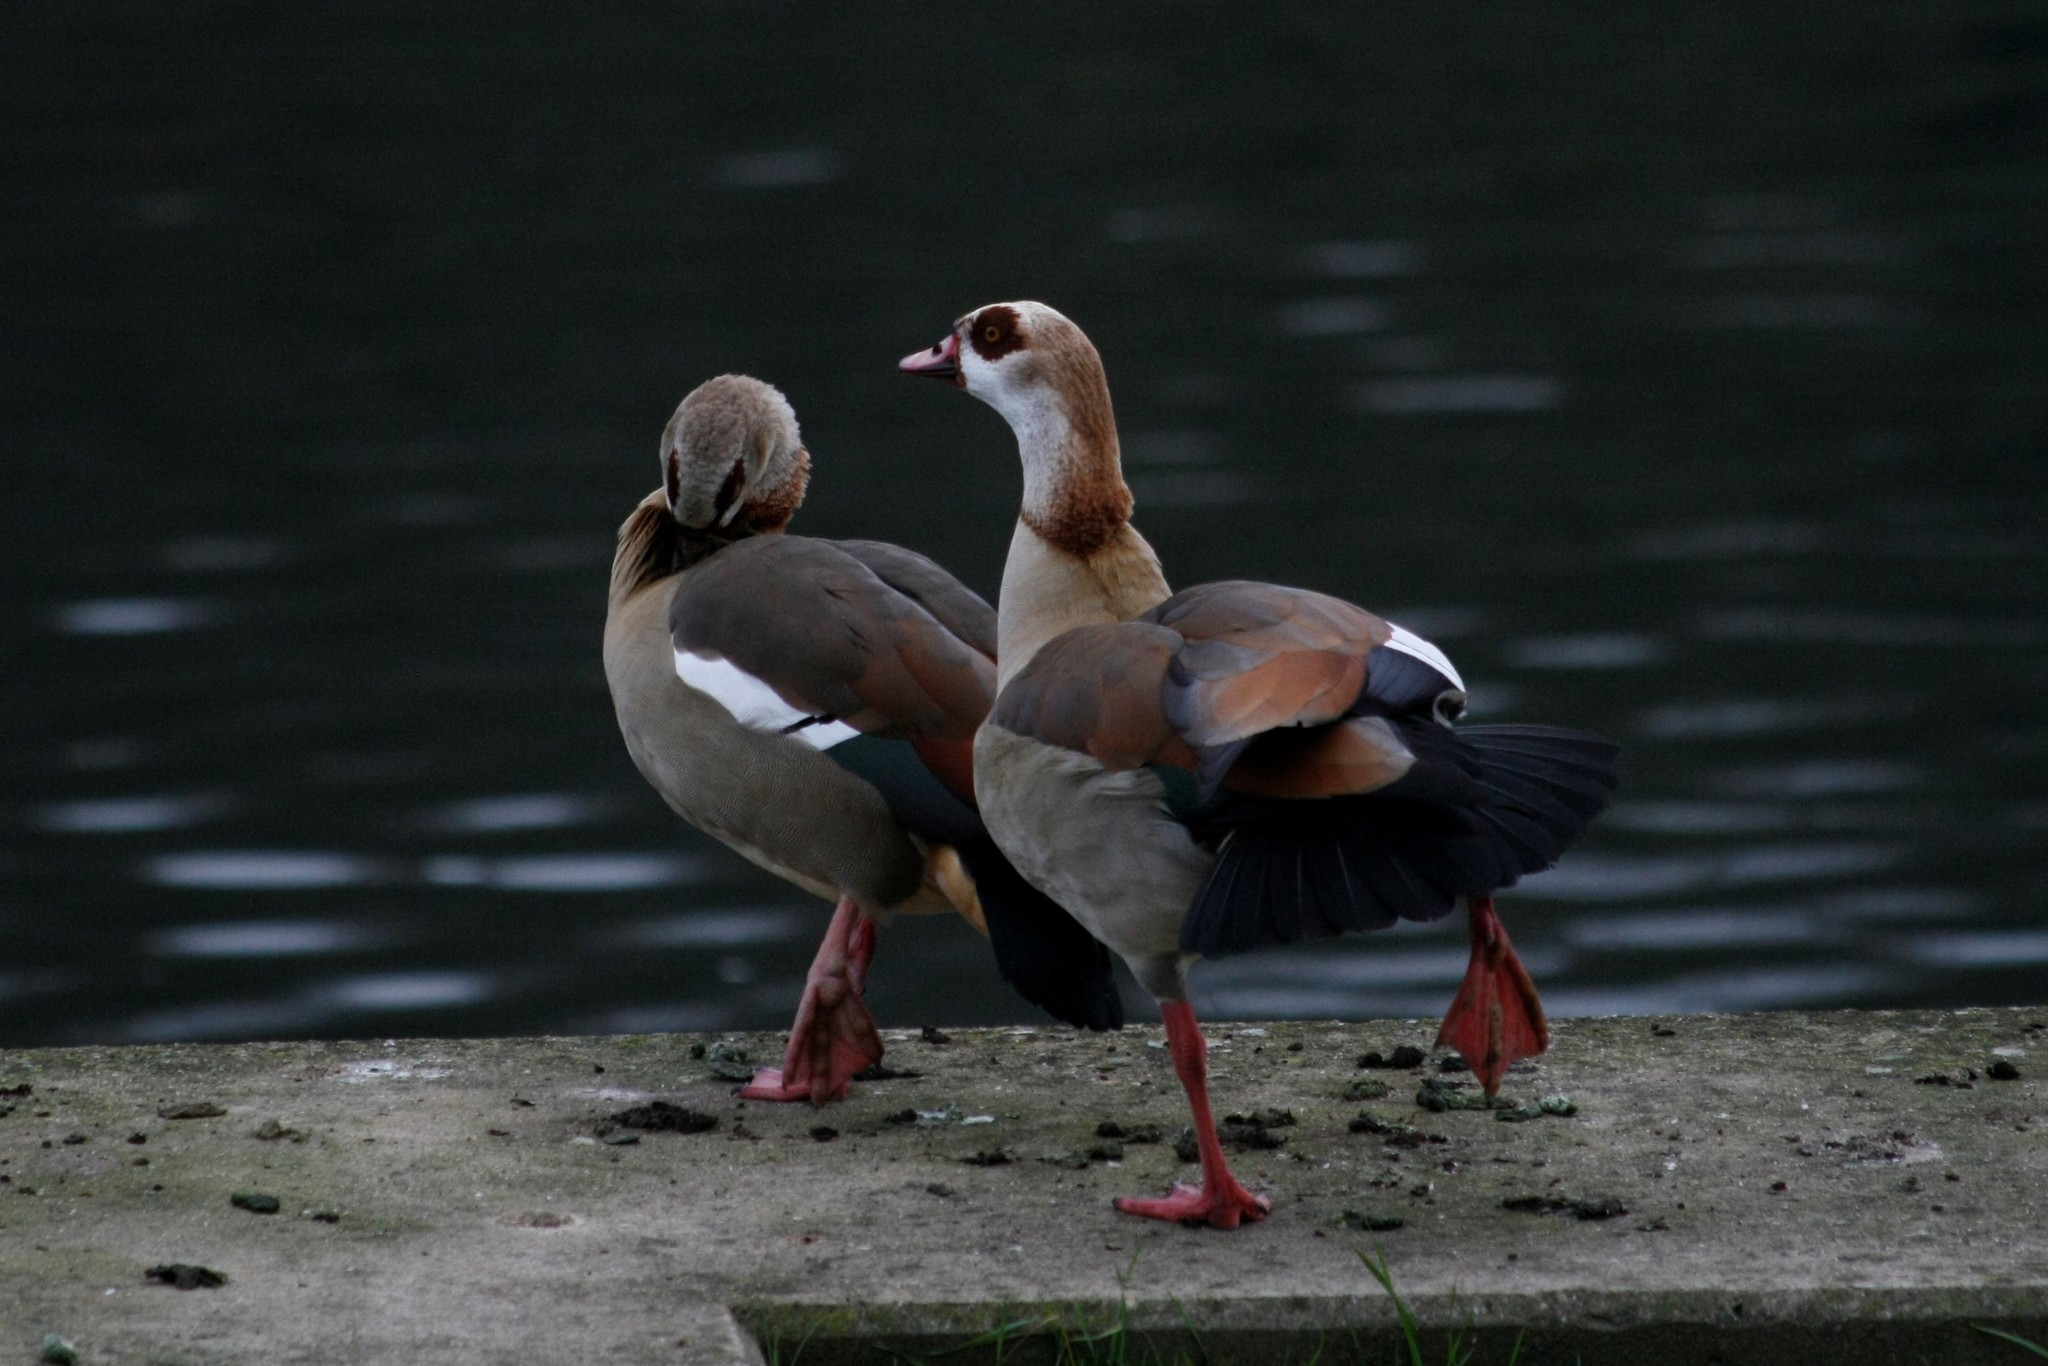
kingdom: Animalia
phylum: Chordata
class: Aves
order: Anseriformes
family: Anatidae
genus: Alopochen
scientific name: Alopochen aegyptiaca
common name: Egyptian goose
